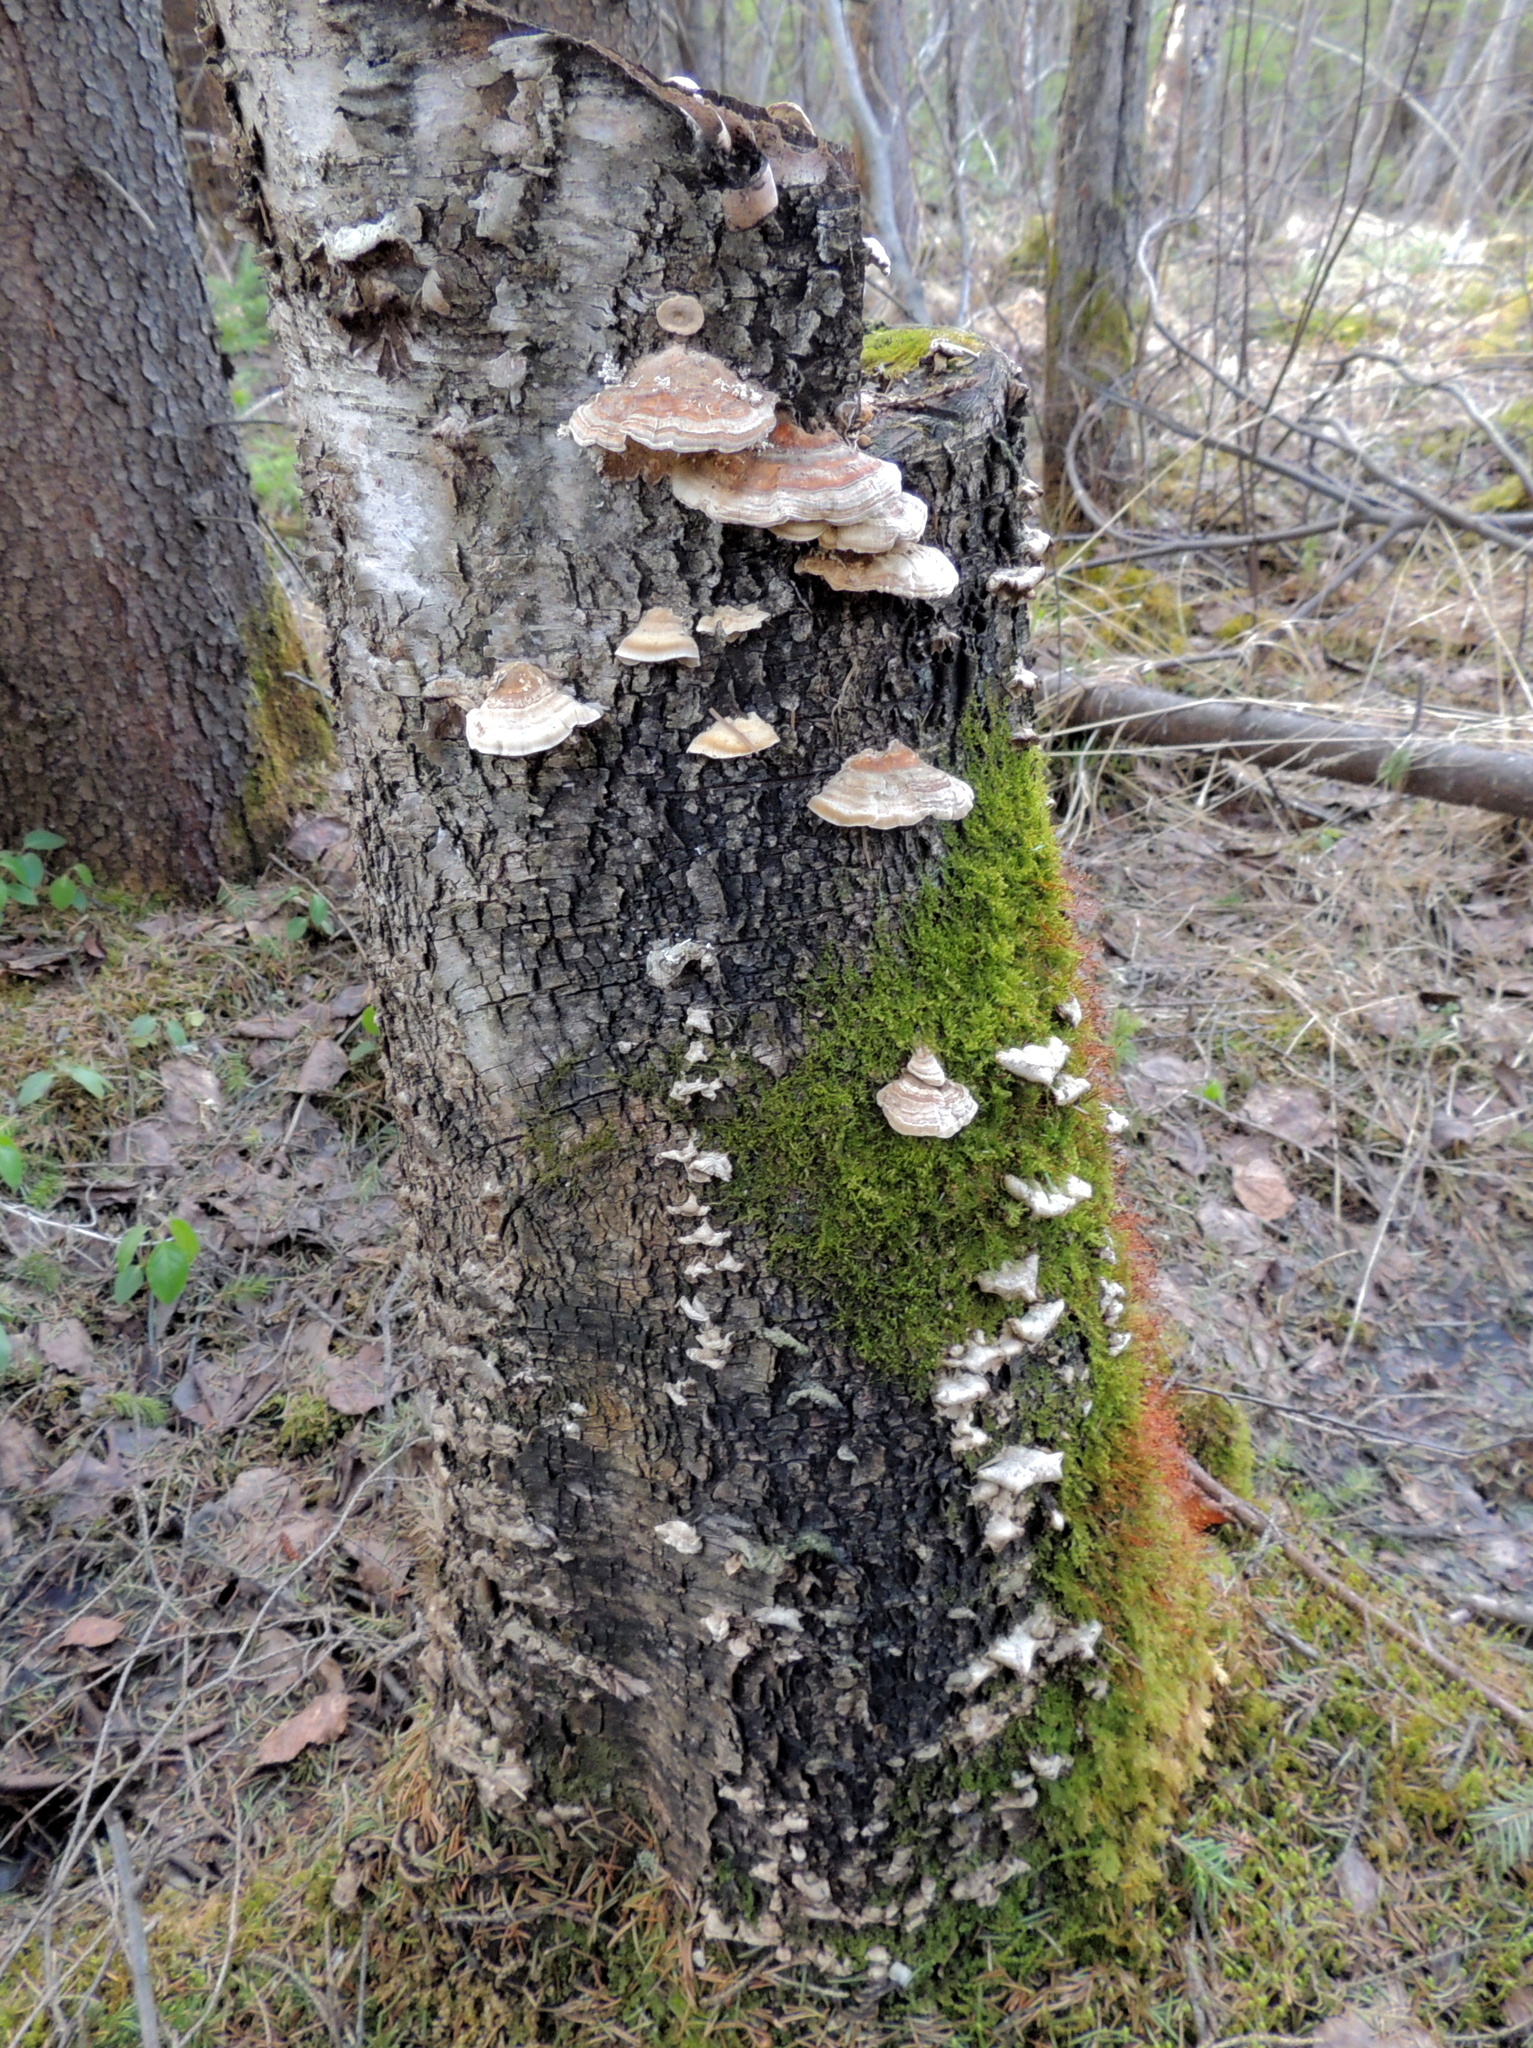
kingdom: Fungi
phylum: Basidiomycota
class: Agaricomycetes
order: Polyporales
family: Polyporaceae
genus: Trametes
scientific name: Trametes ochracea
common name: Ochre bracket
